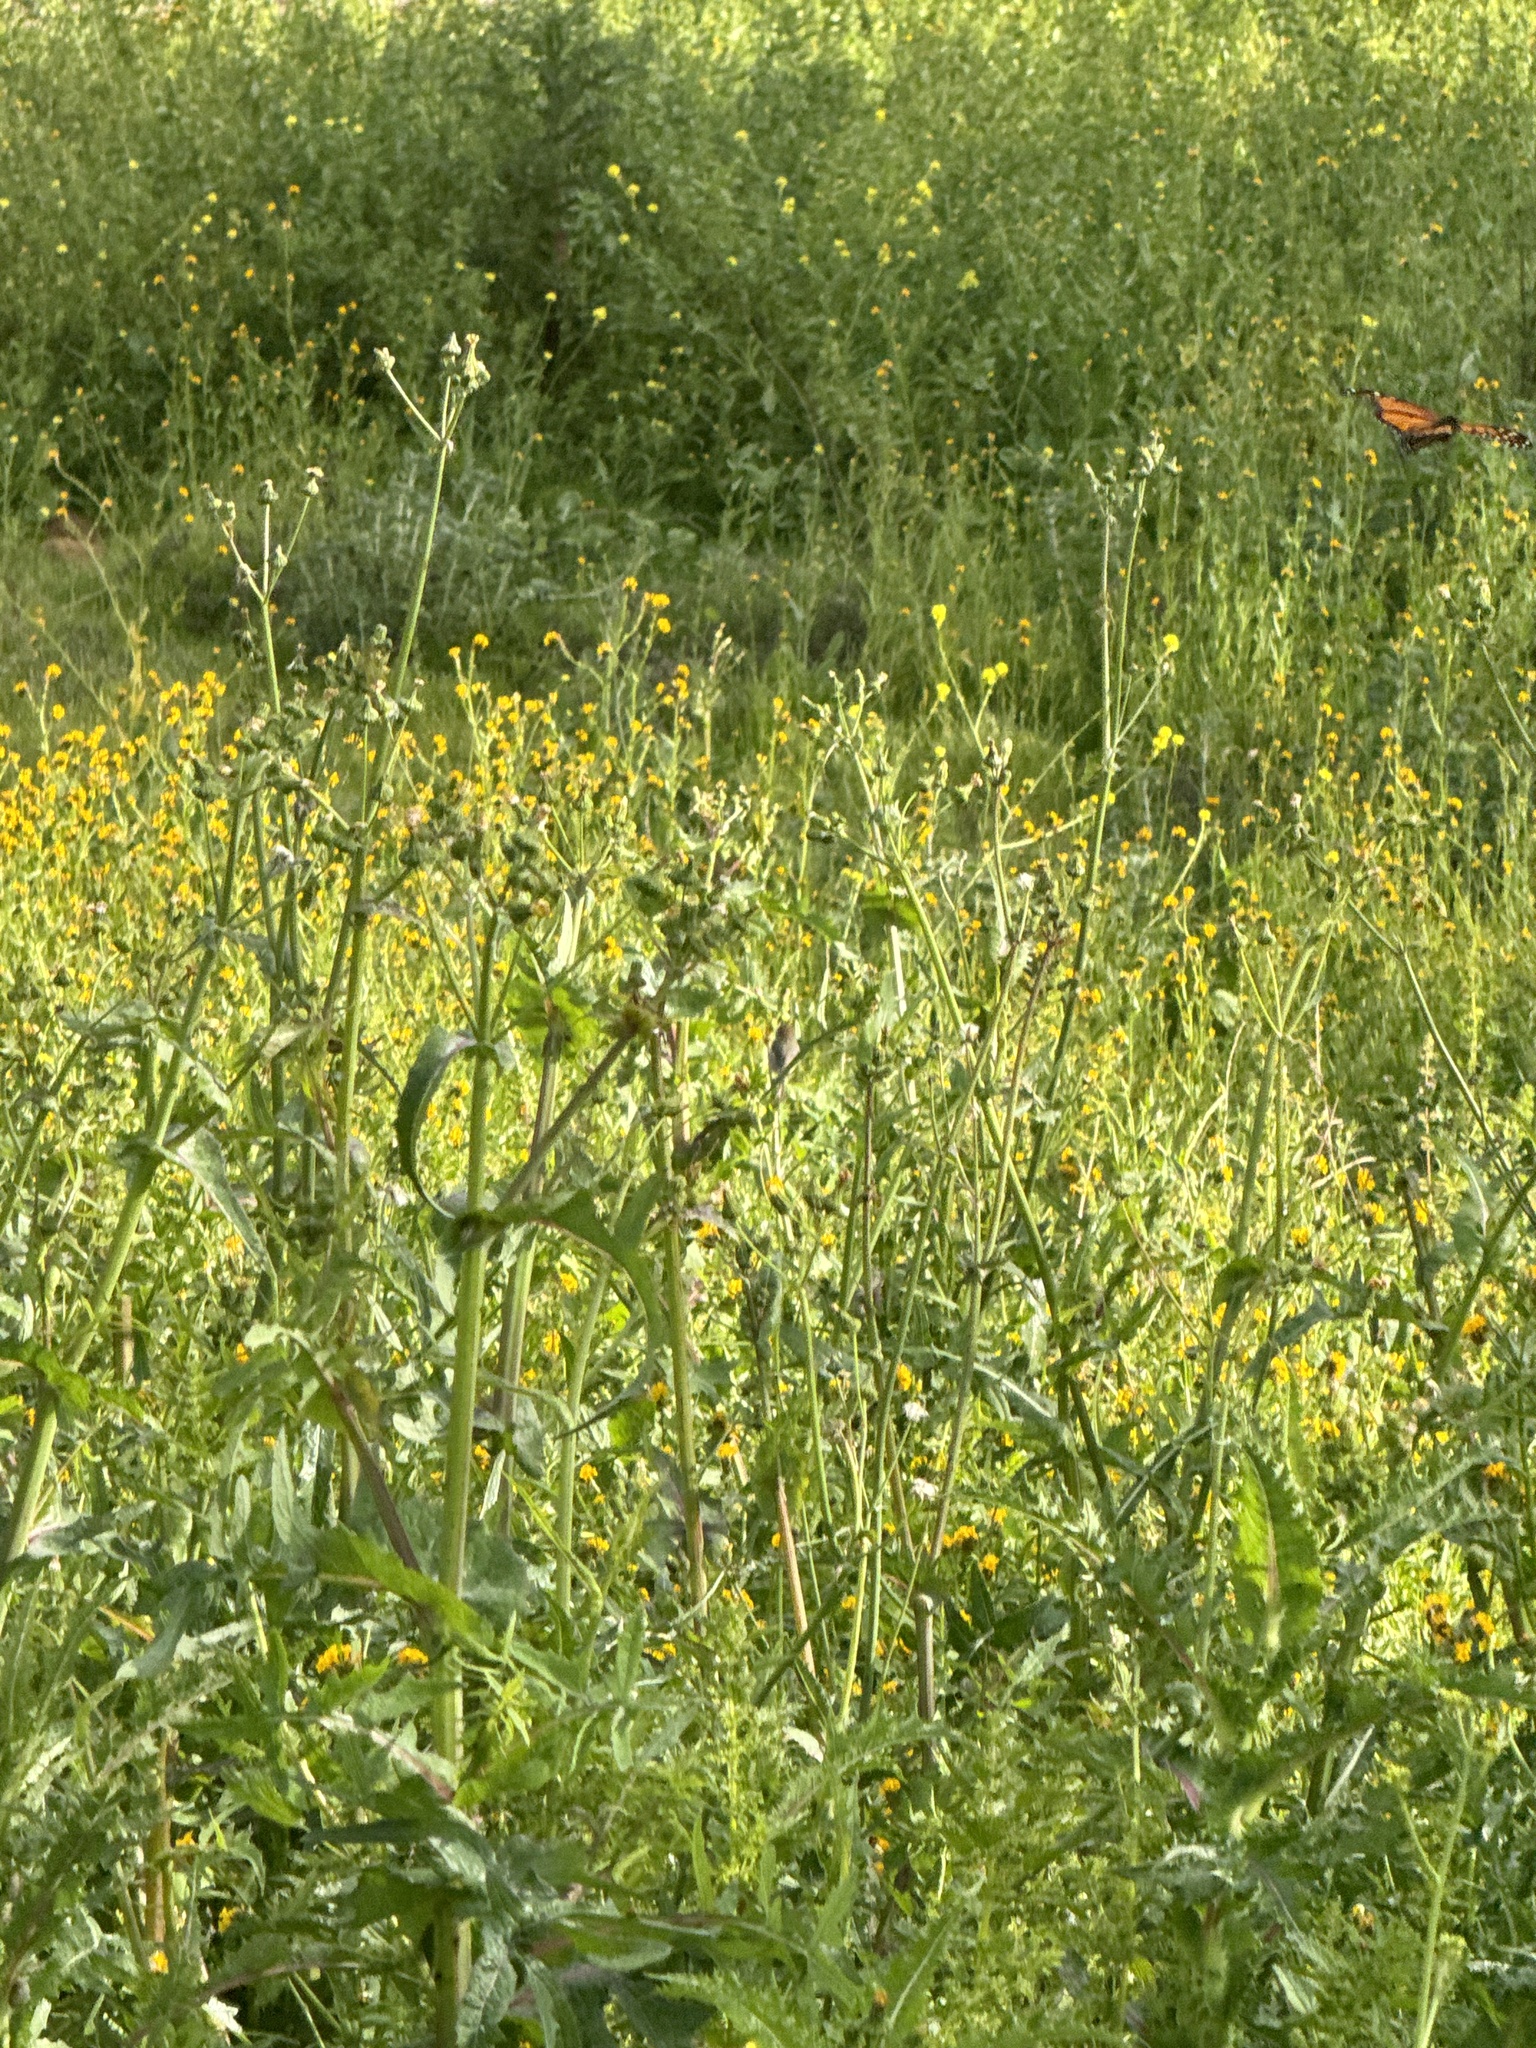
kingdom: Animalia
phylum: Arthropoda
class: Insecta
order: Lepidoptera
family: Nymphalidae
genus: Danaus
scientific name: Danaus plexippus
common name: Monarch
